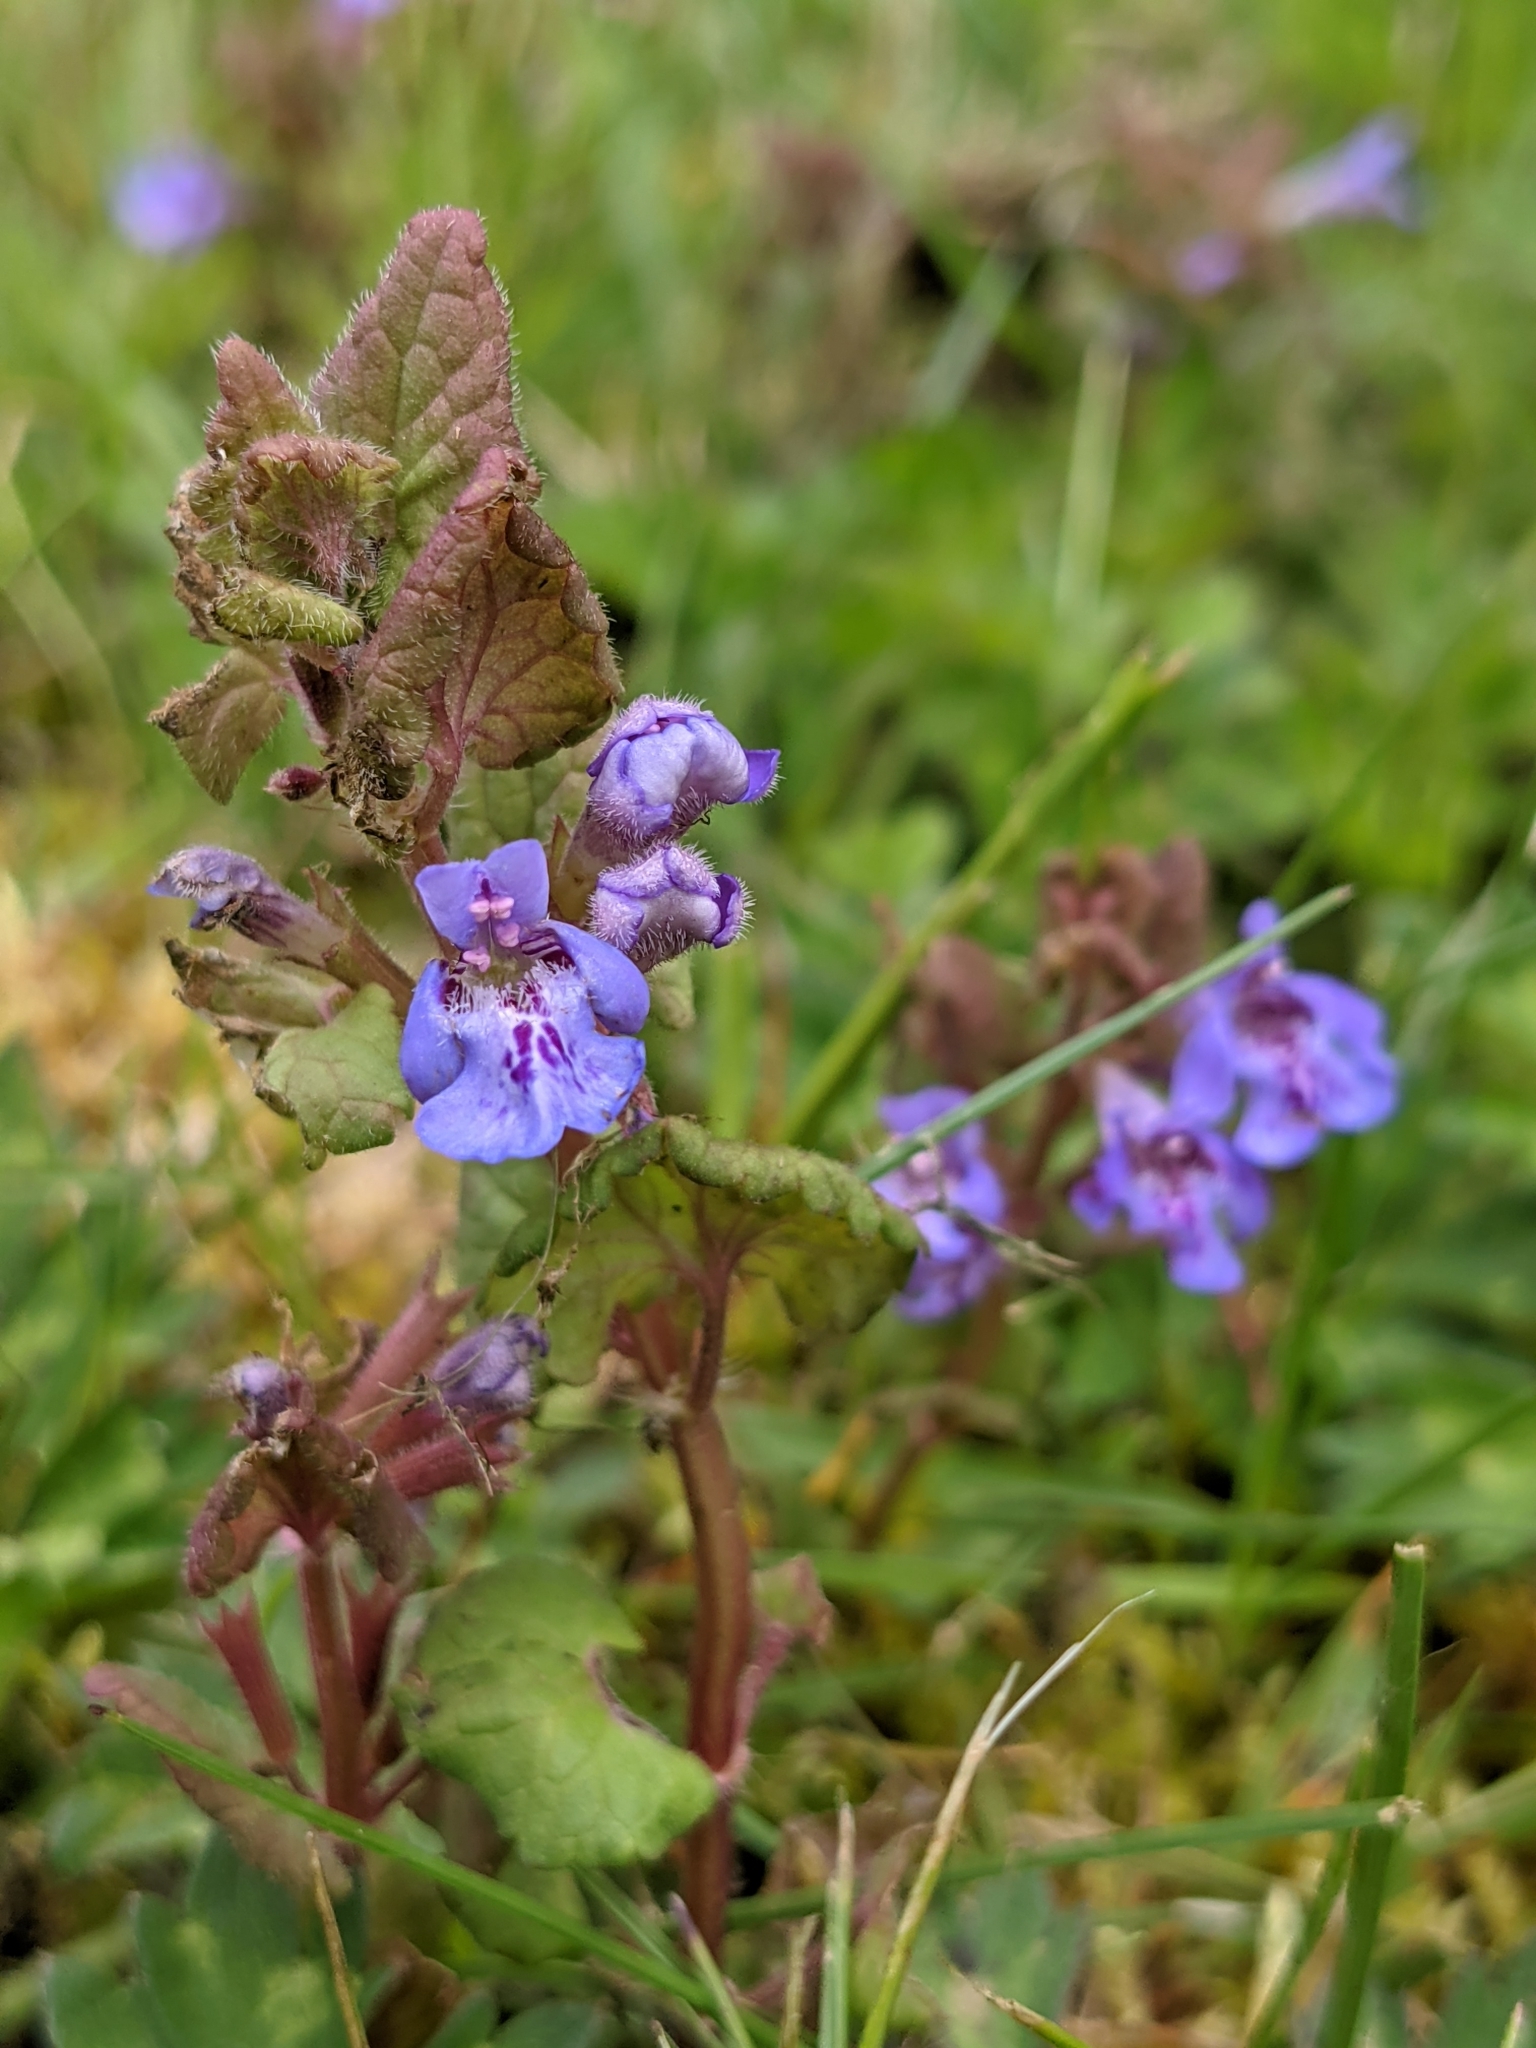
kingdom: Plantae
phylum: Tracheophyta
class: Magnoliopsida
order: Lamiales
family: Lamiaceae
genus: Glechoma
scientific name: Glechoma hederacea
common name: Ground ivy
